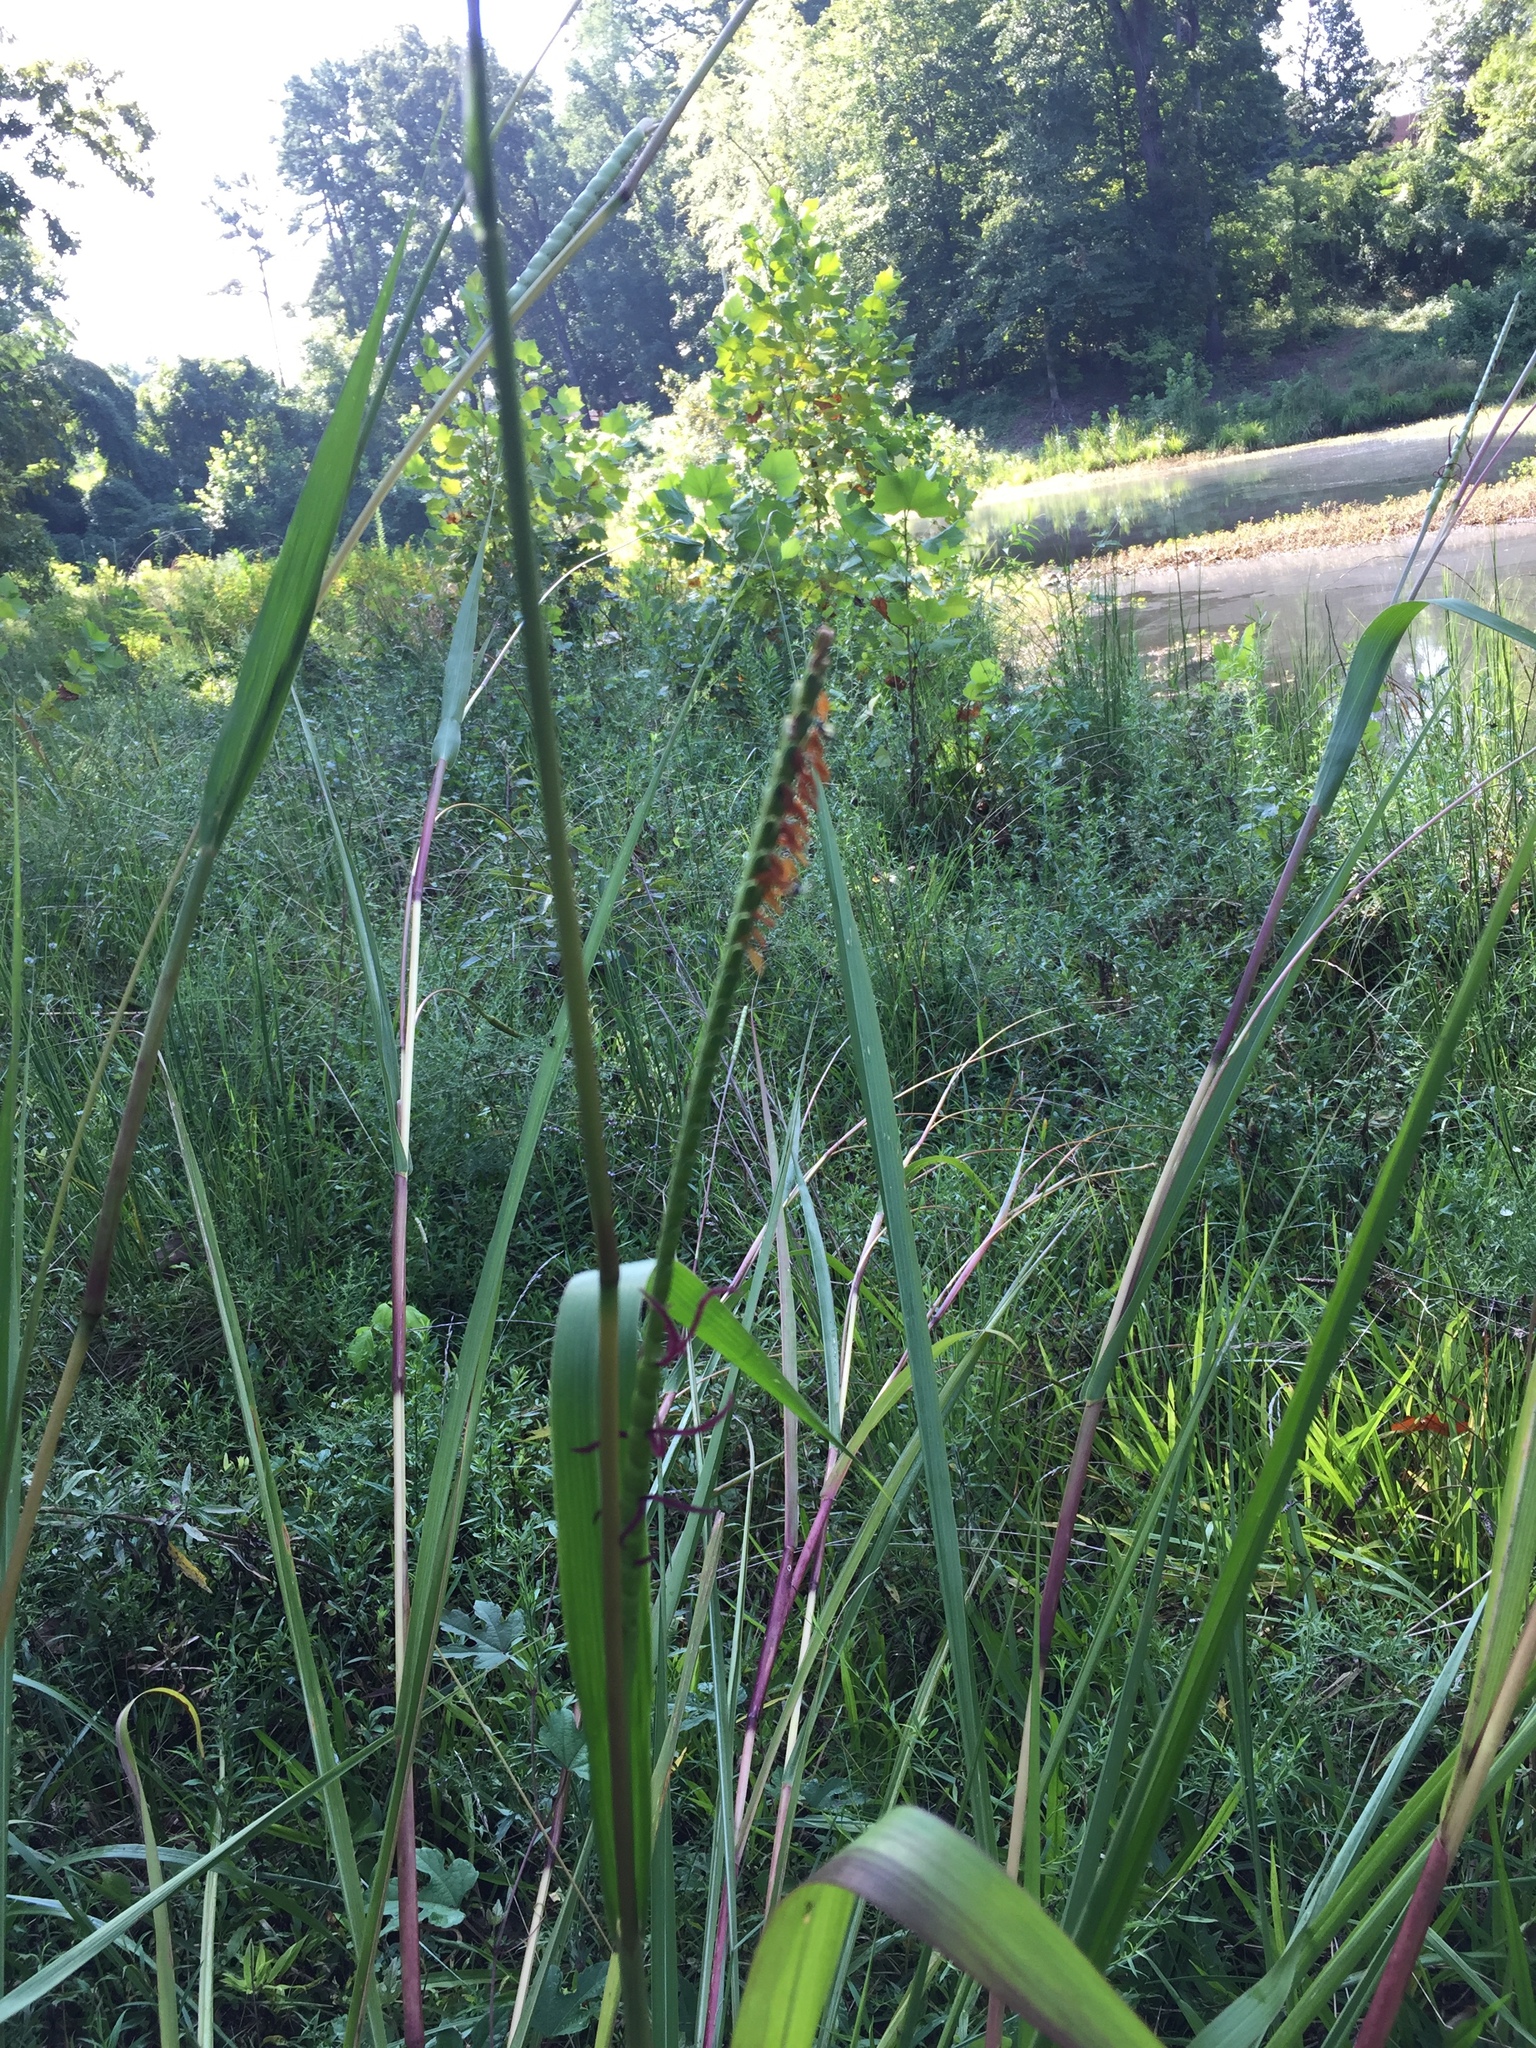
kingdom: Plantae
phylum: Tracheophyta
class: Liliopsida
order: Poales
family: Poaceae
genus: Tripsacum
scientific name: Tripsacum dactyloides
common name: Buffalo-grass
